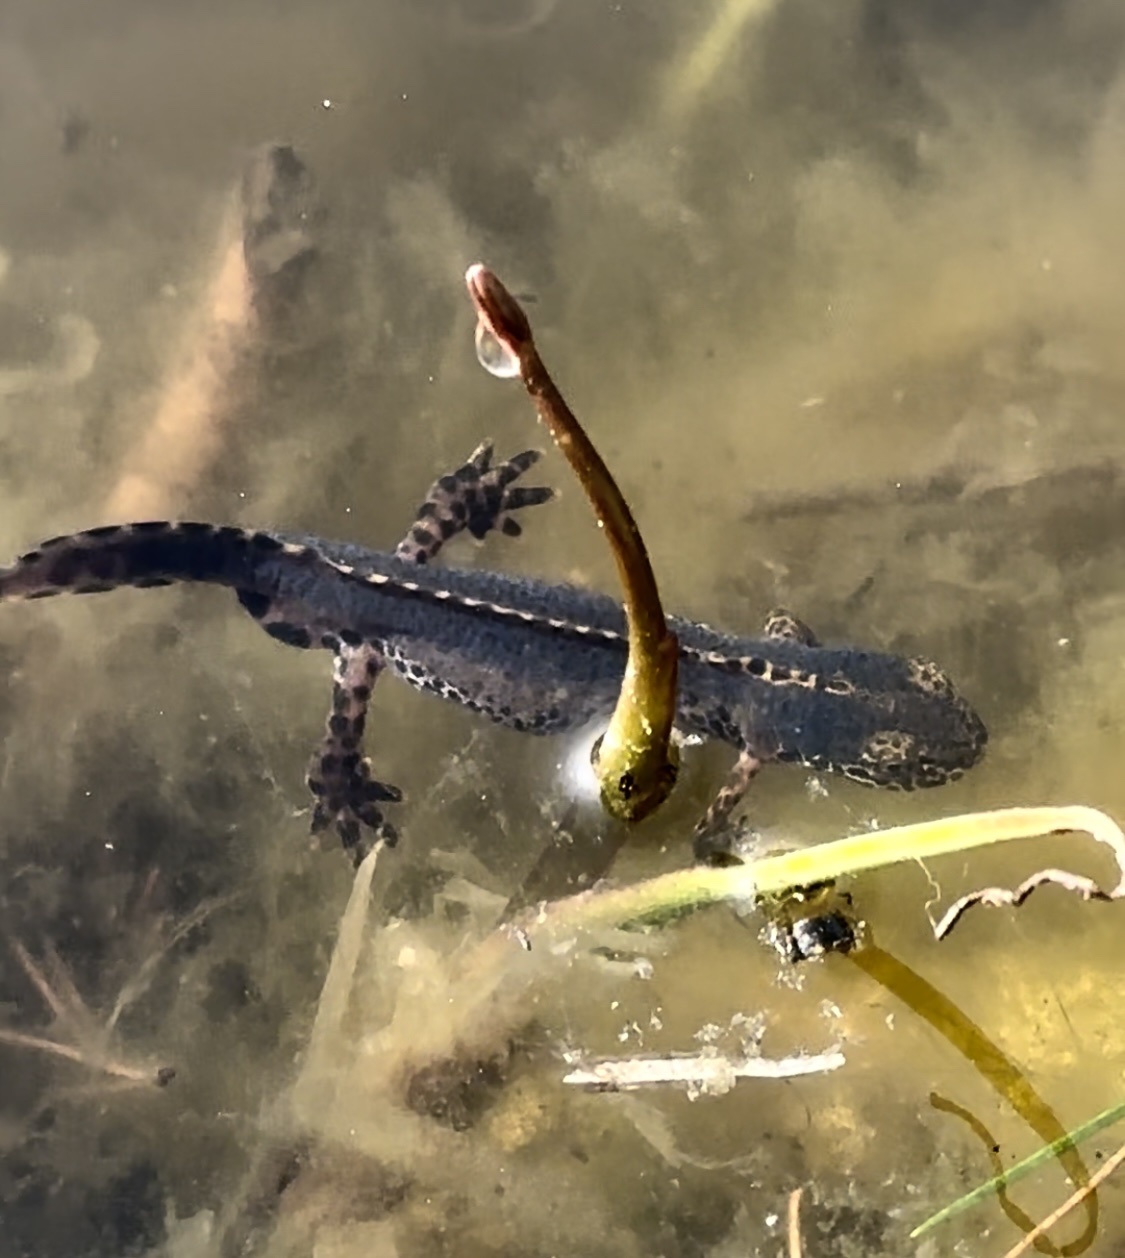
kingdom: Animalia
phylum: Chordata
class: Amphibia
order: Caudata
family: Salamandridae
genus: Ichthyosaura
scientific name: Ichthyosaura alpestris
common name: Alpine newt
